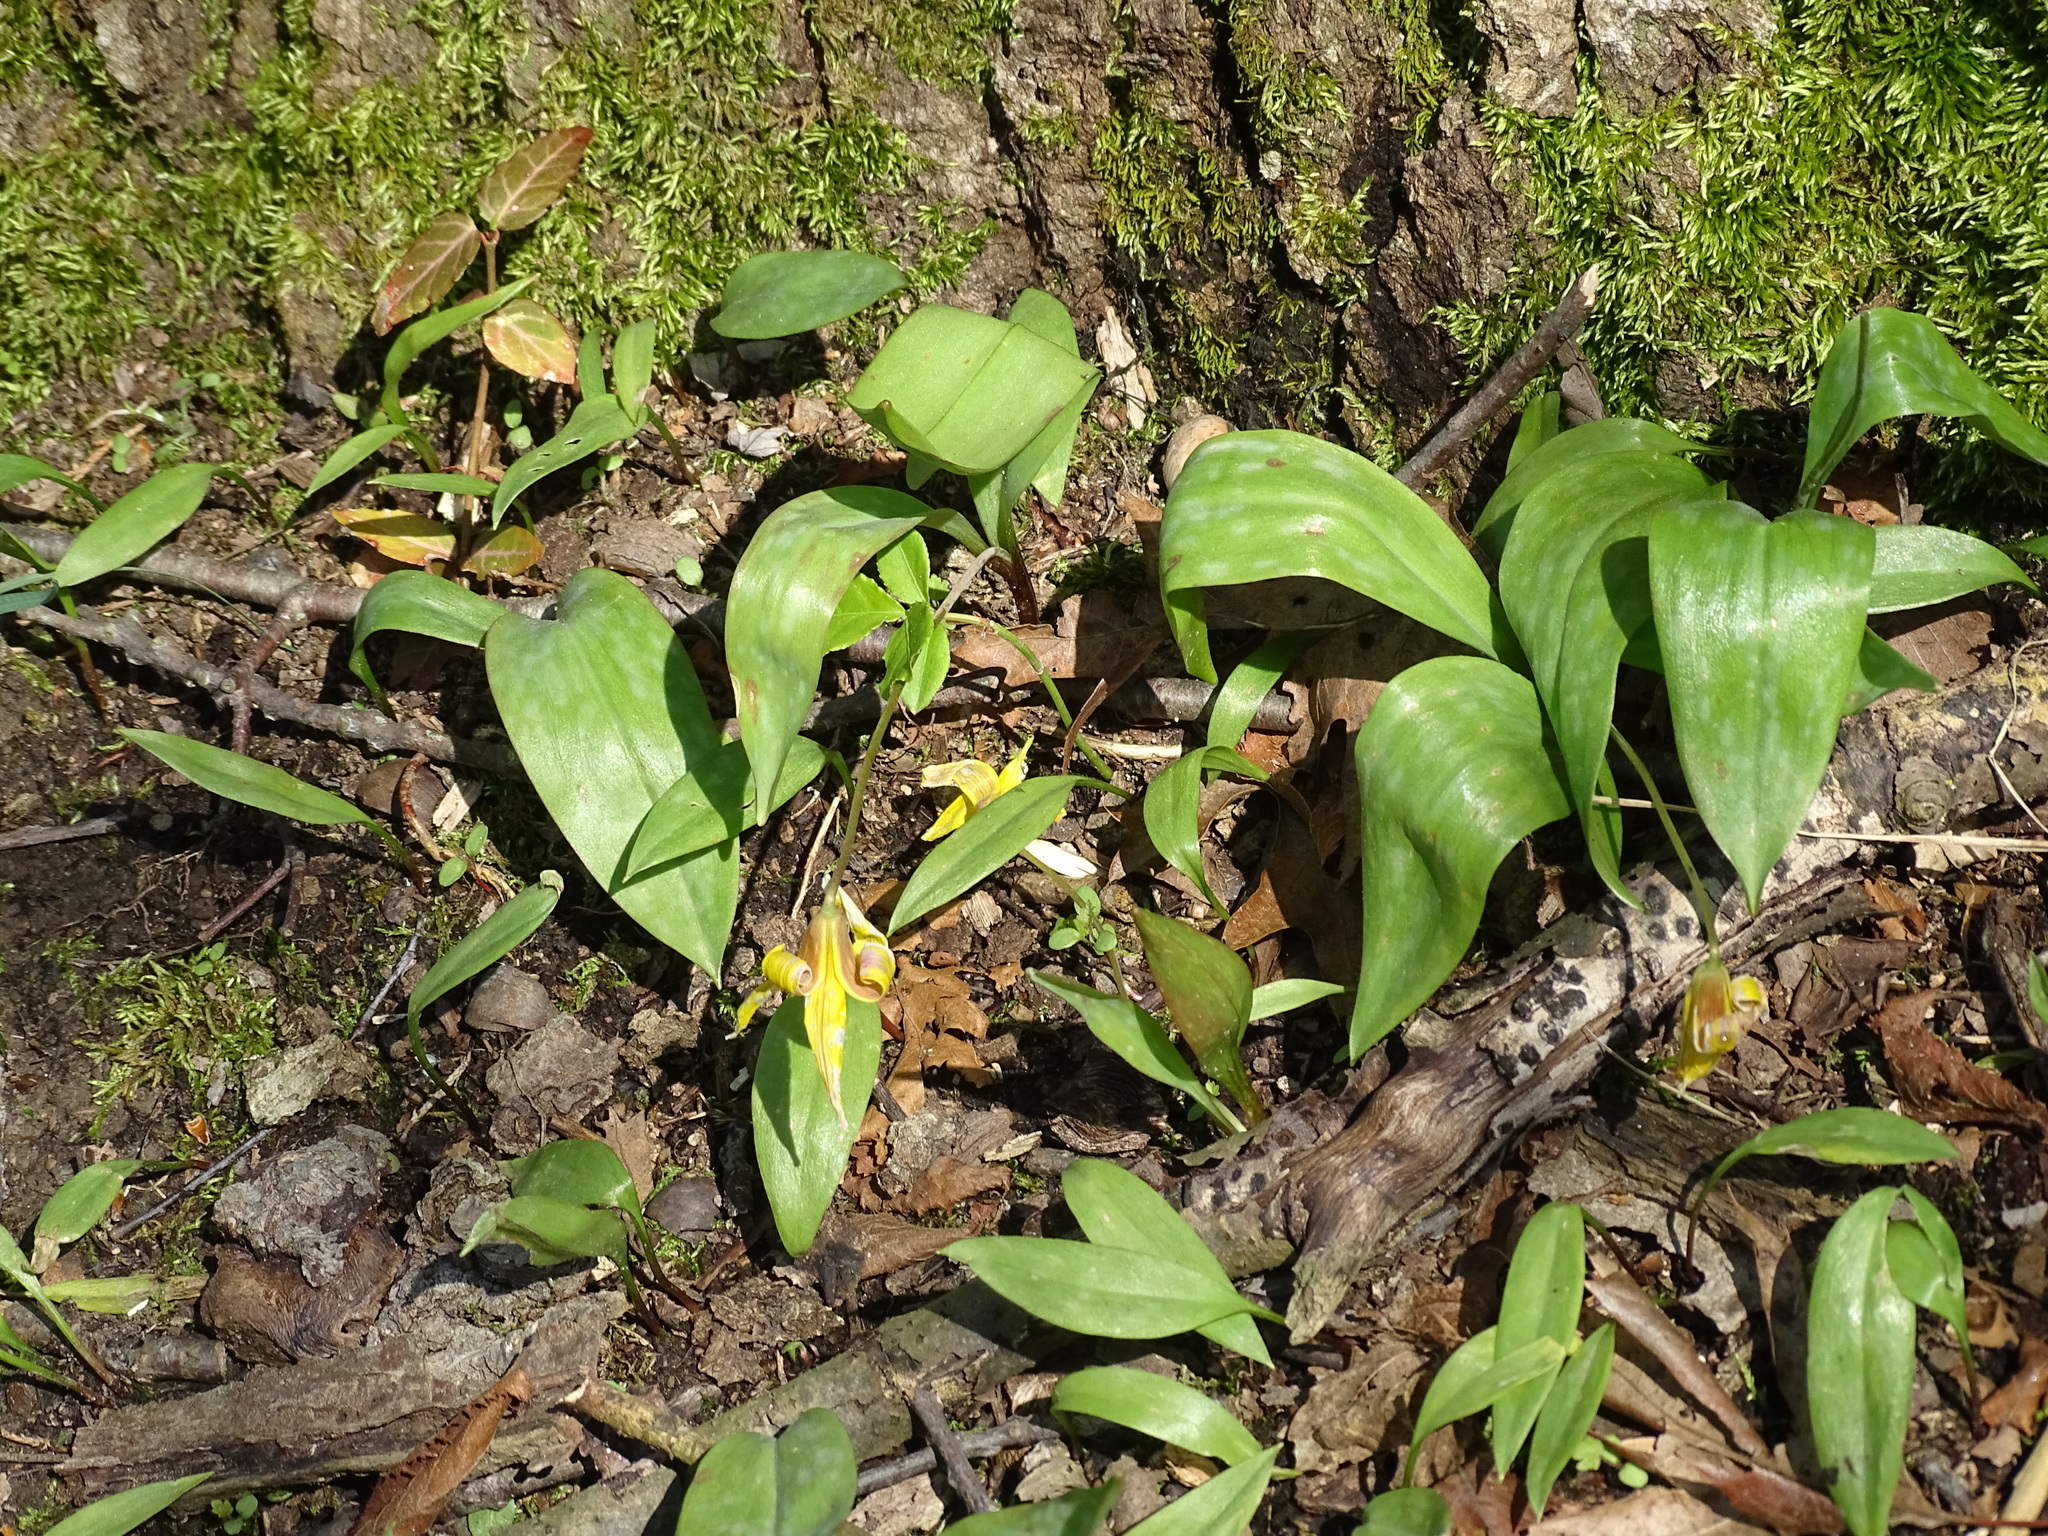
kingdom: Plantae
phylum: Tracheophyta
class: Liliopsida
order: Liliales
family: Liliaceae
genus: Erythronium
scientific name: Erythronium americanum
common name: Yellow adder's-tongue
